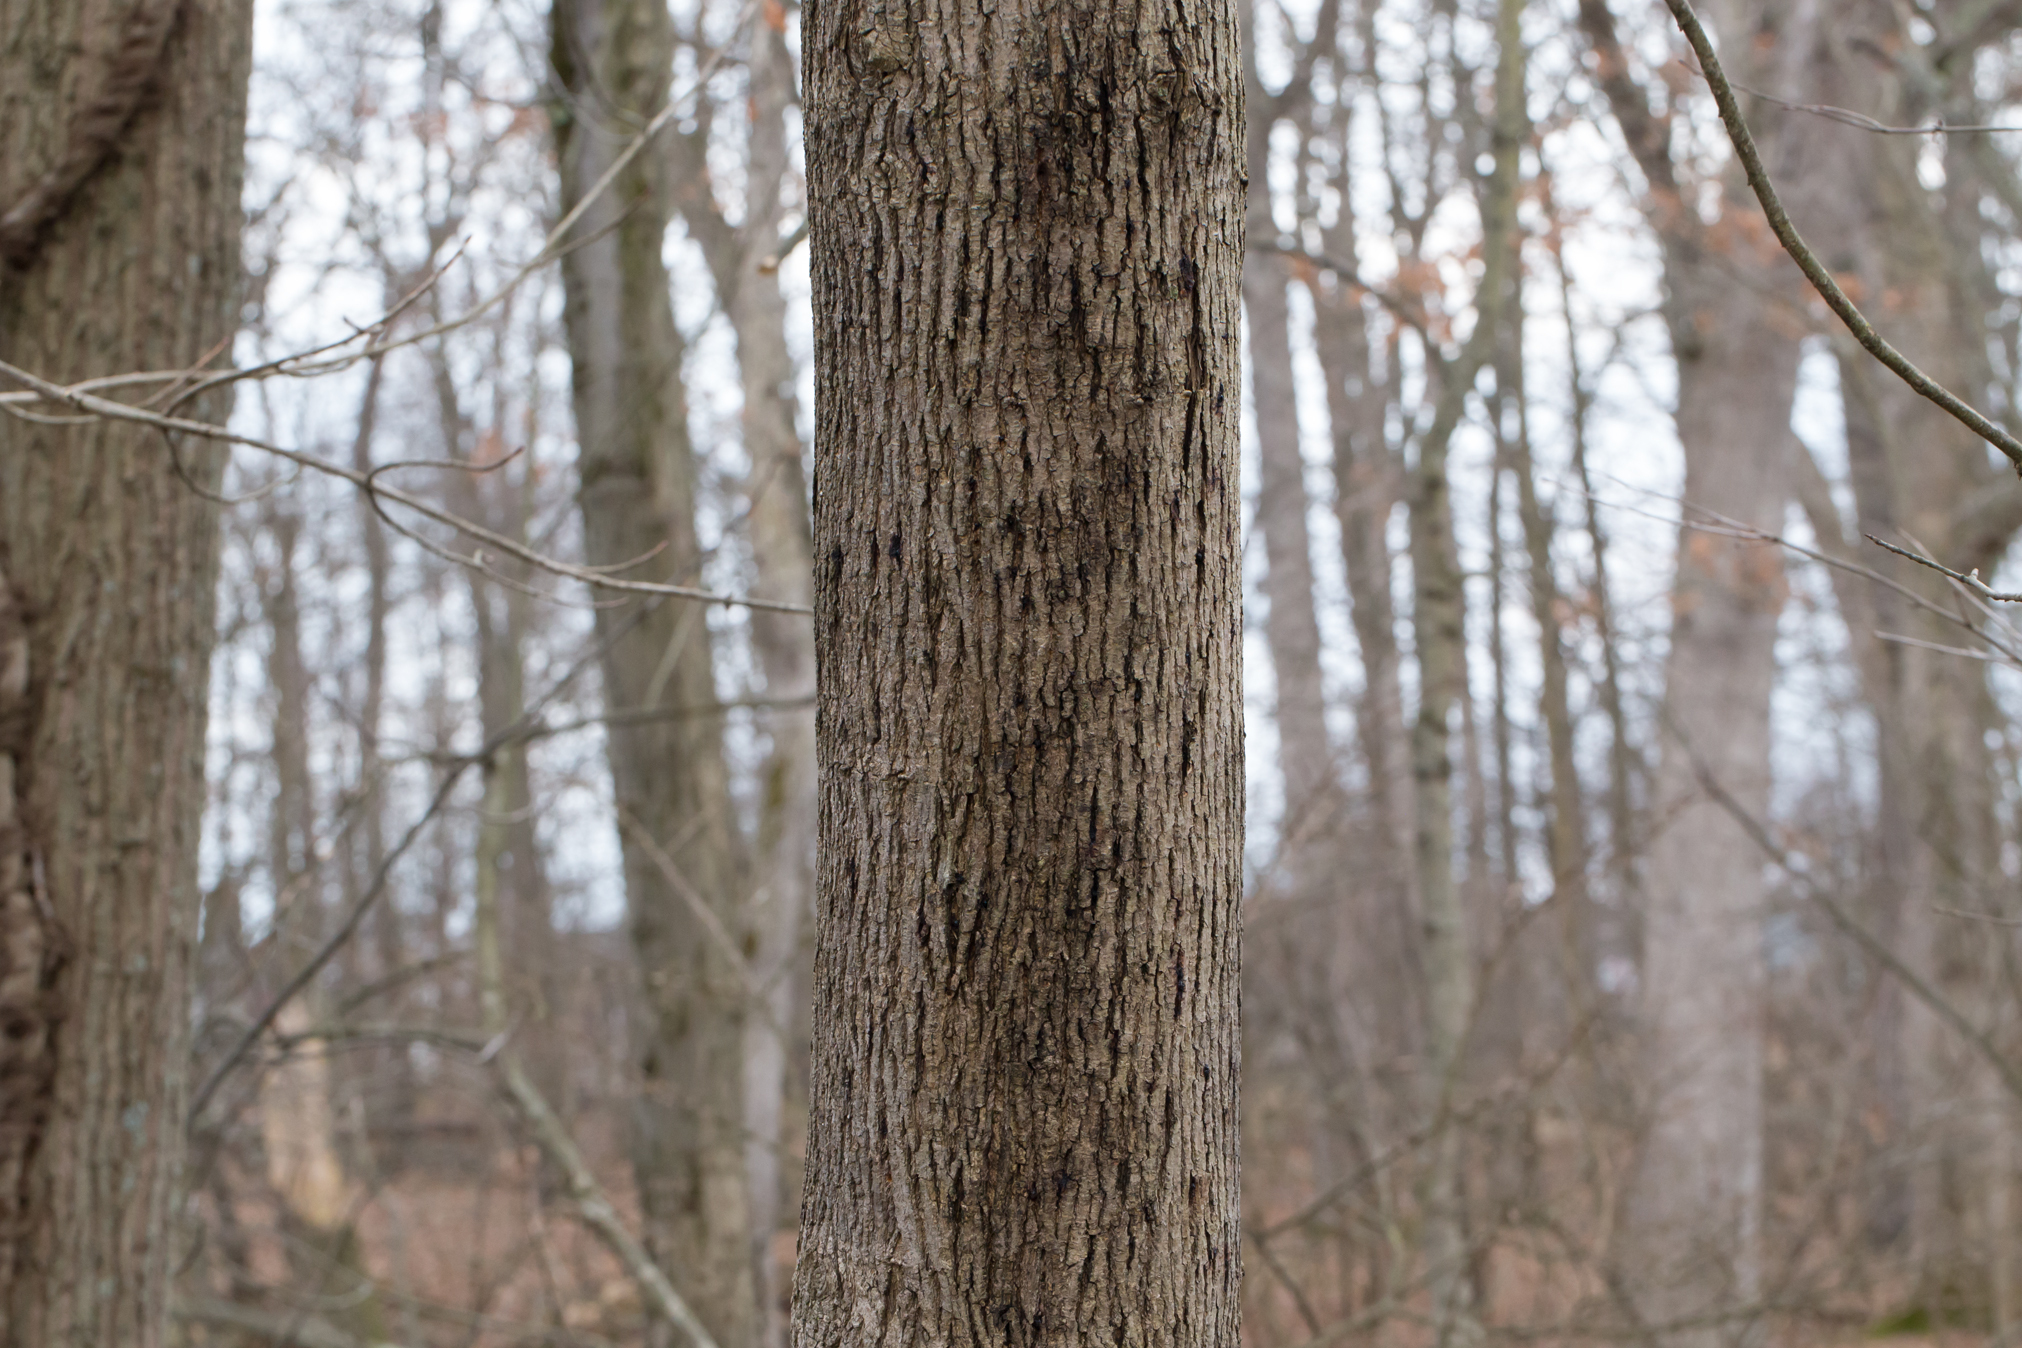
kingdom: Plantae
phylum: Tracheophyta
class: Magnoliopsida
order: Sapindales
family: Sapindaceae
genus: Acer
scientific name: Acer platanoides
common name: Norway maple
